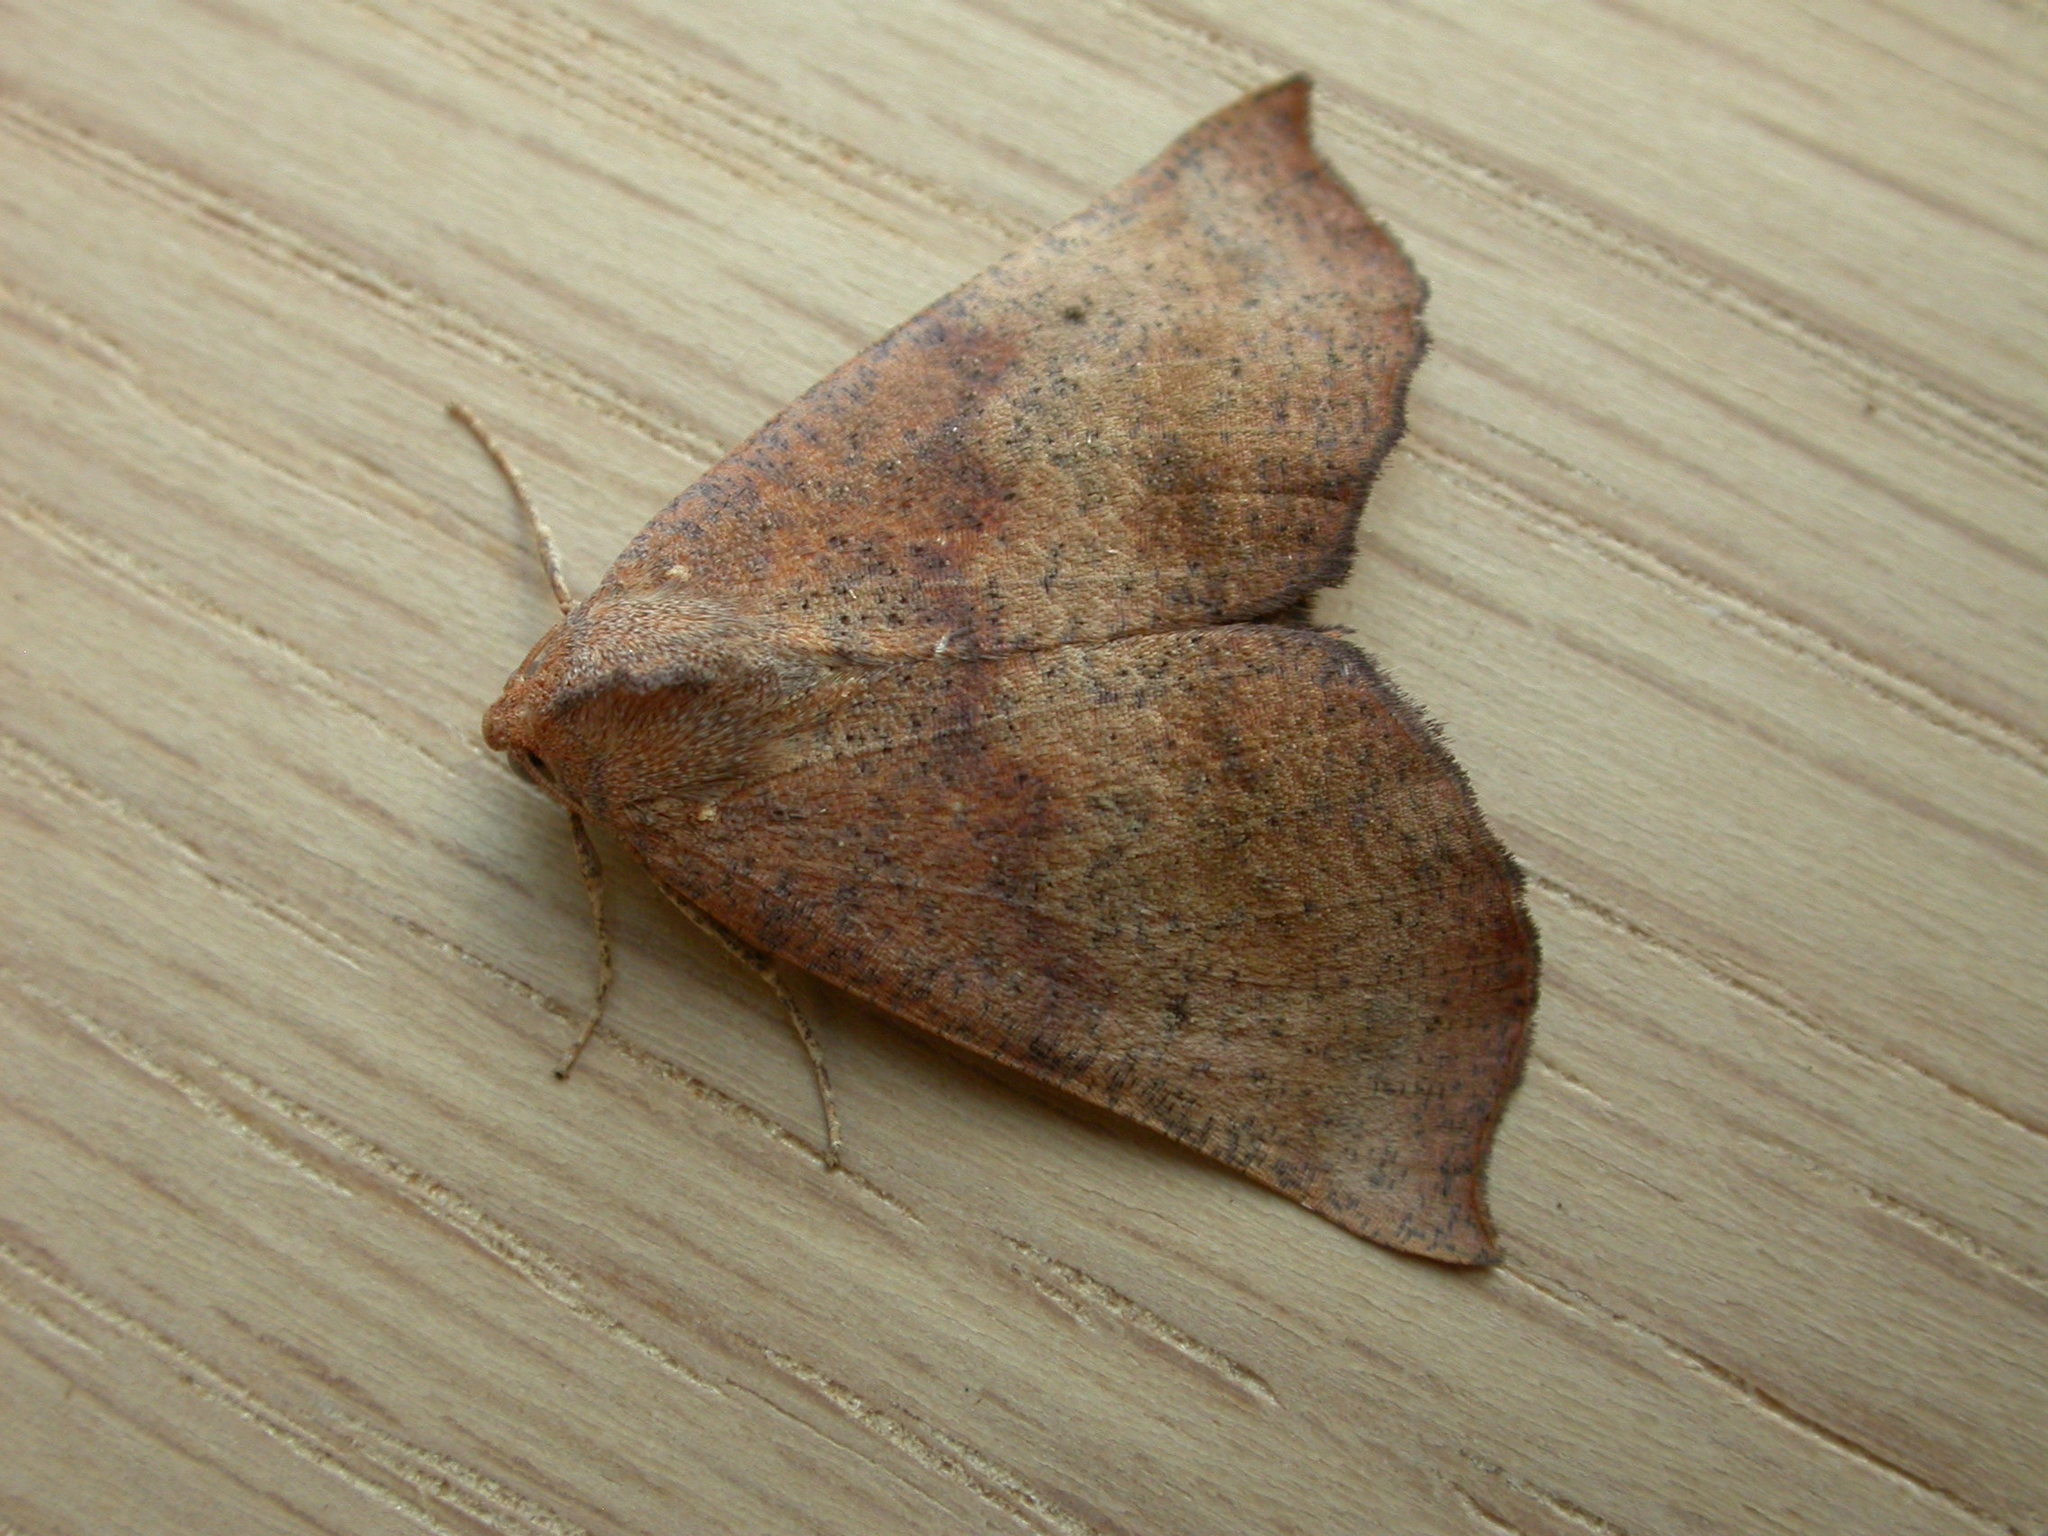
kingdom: Animalia
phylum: Arthropoda
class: Insecta
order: Lepidoptera
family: Geometridae
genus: Mnesampela
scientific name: Mnesampela privata
